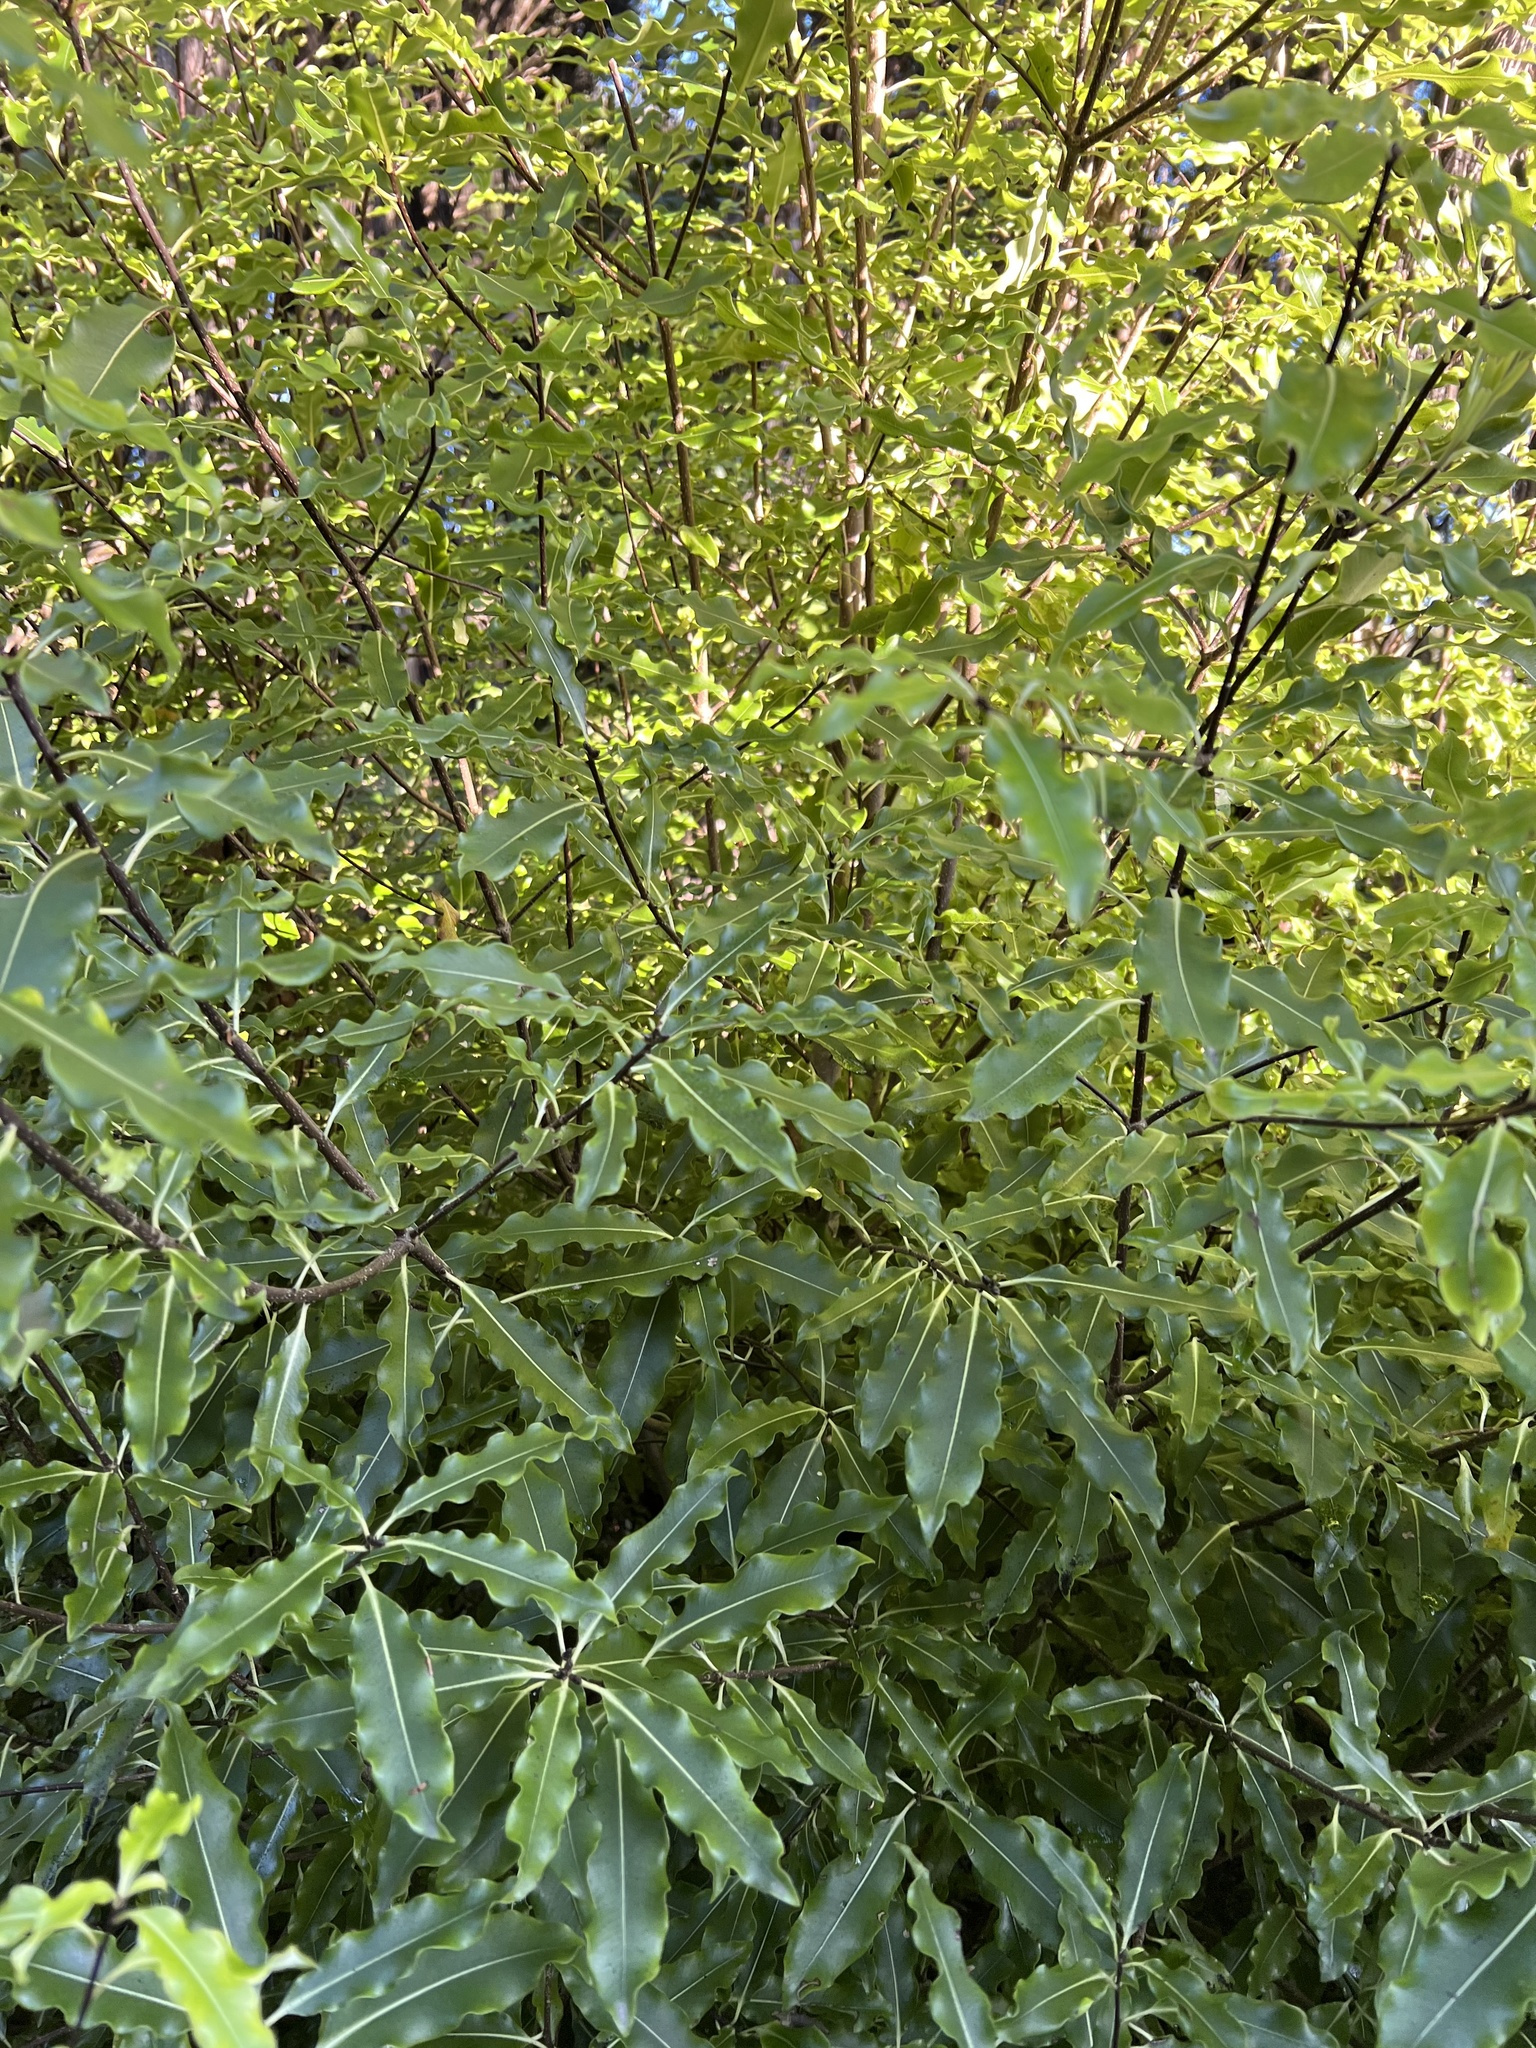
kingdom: Plantae
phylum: Tracheophyta
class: Magnoliopsida
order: Apiales
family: Pittosporaceae
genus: Pittosporum
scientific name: Pittosporum eugenioides
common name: Lemonwood
